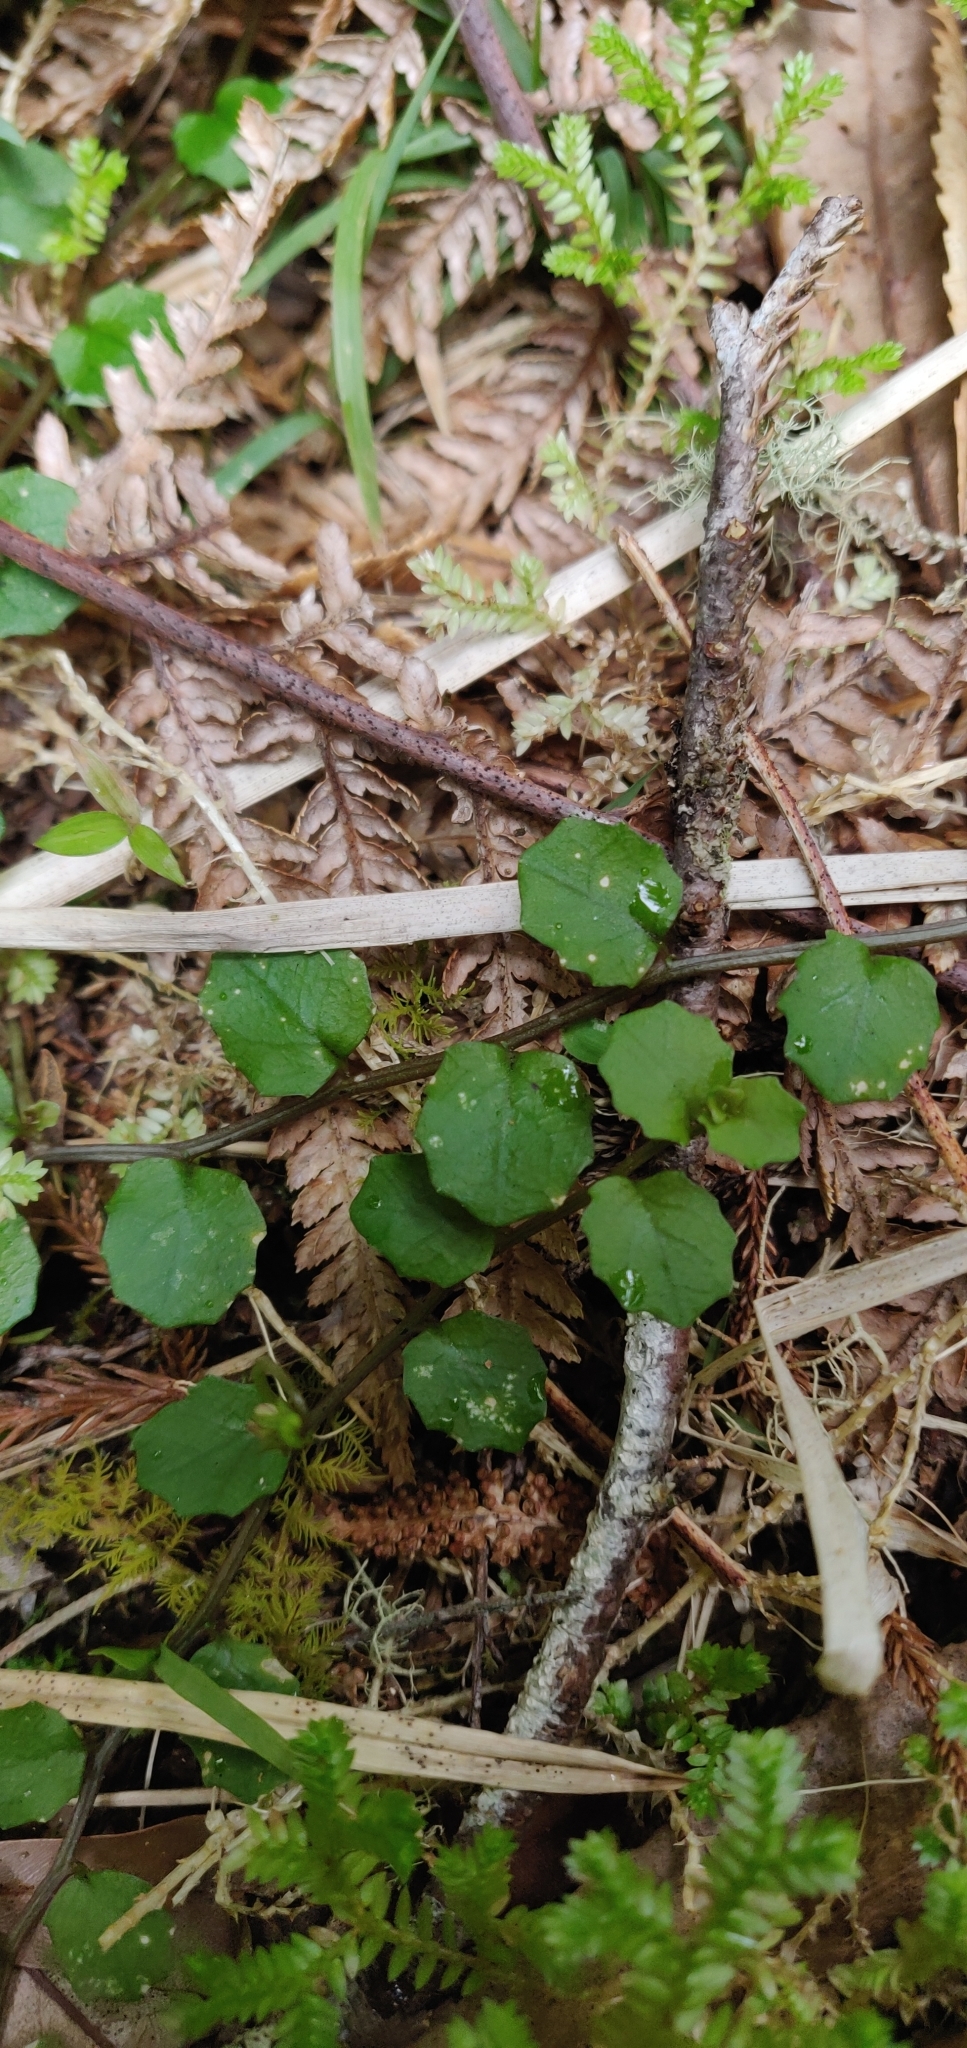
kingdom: Plantae
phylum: Tracheophyta
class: Magnoliopsida
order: Asterales
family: Campanulaceae
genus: Lobelia
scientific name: Lobelia angulata
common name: Lawn lobelia
